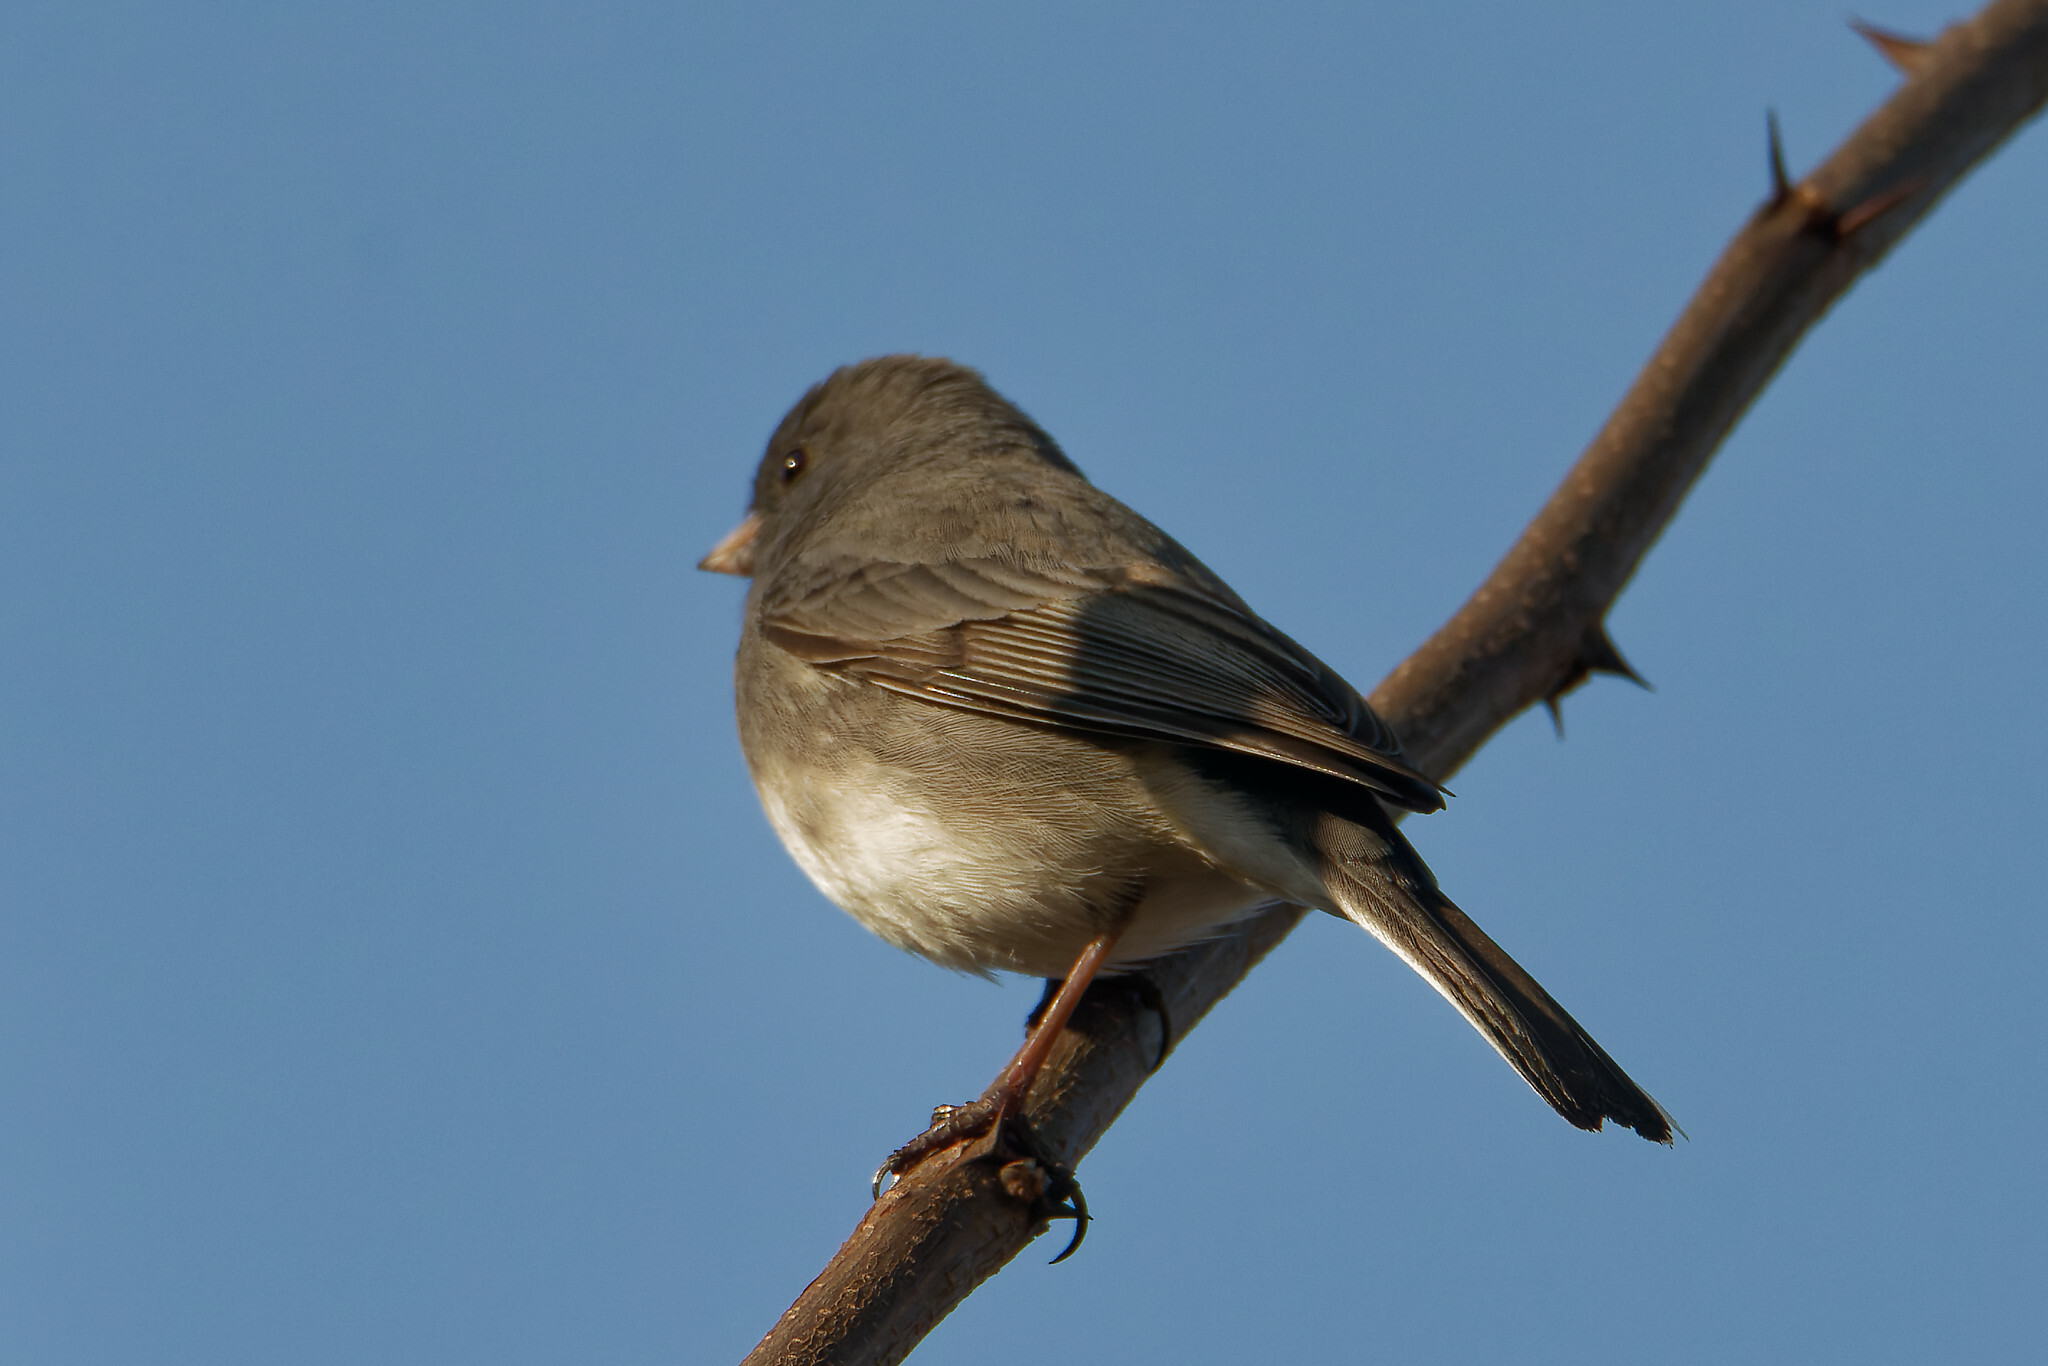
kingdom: Animalia
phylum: Chordata
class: Aves
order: Passeriformes
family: Passerellidae
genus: Junco
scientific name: Junco hyemalis
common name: Dark-eyed junco
